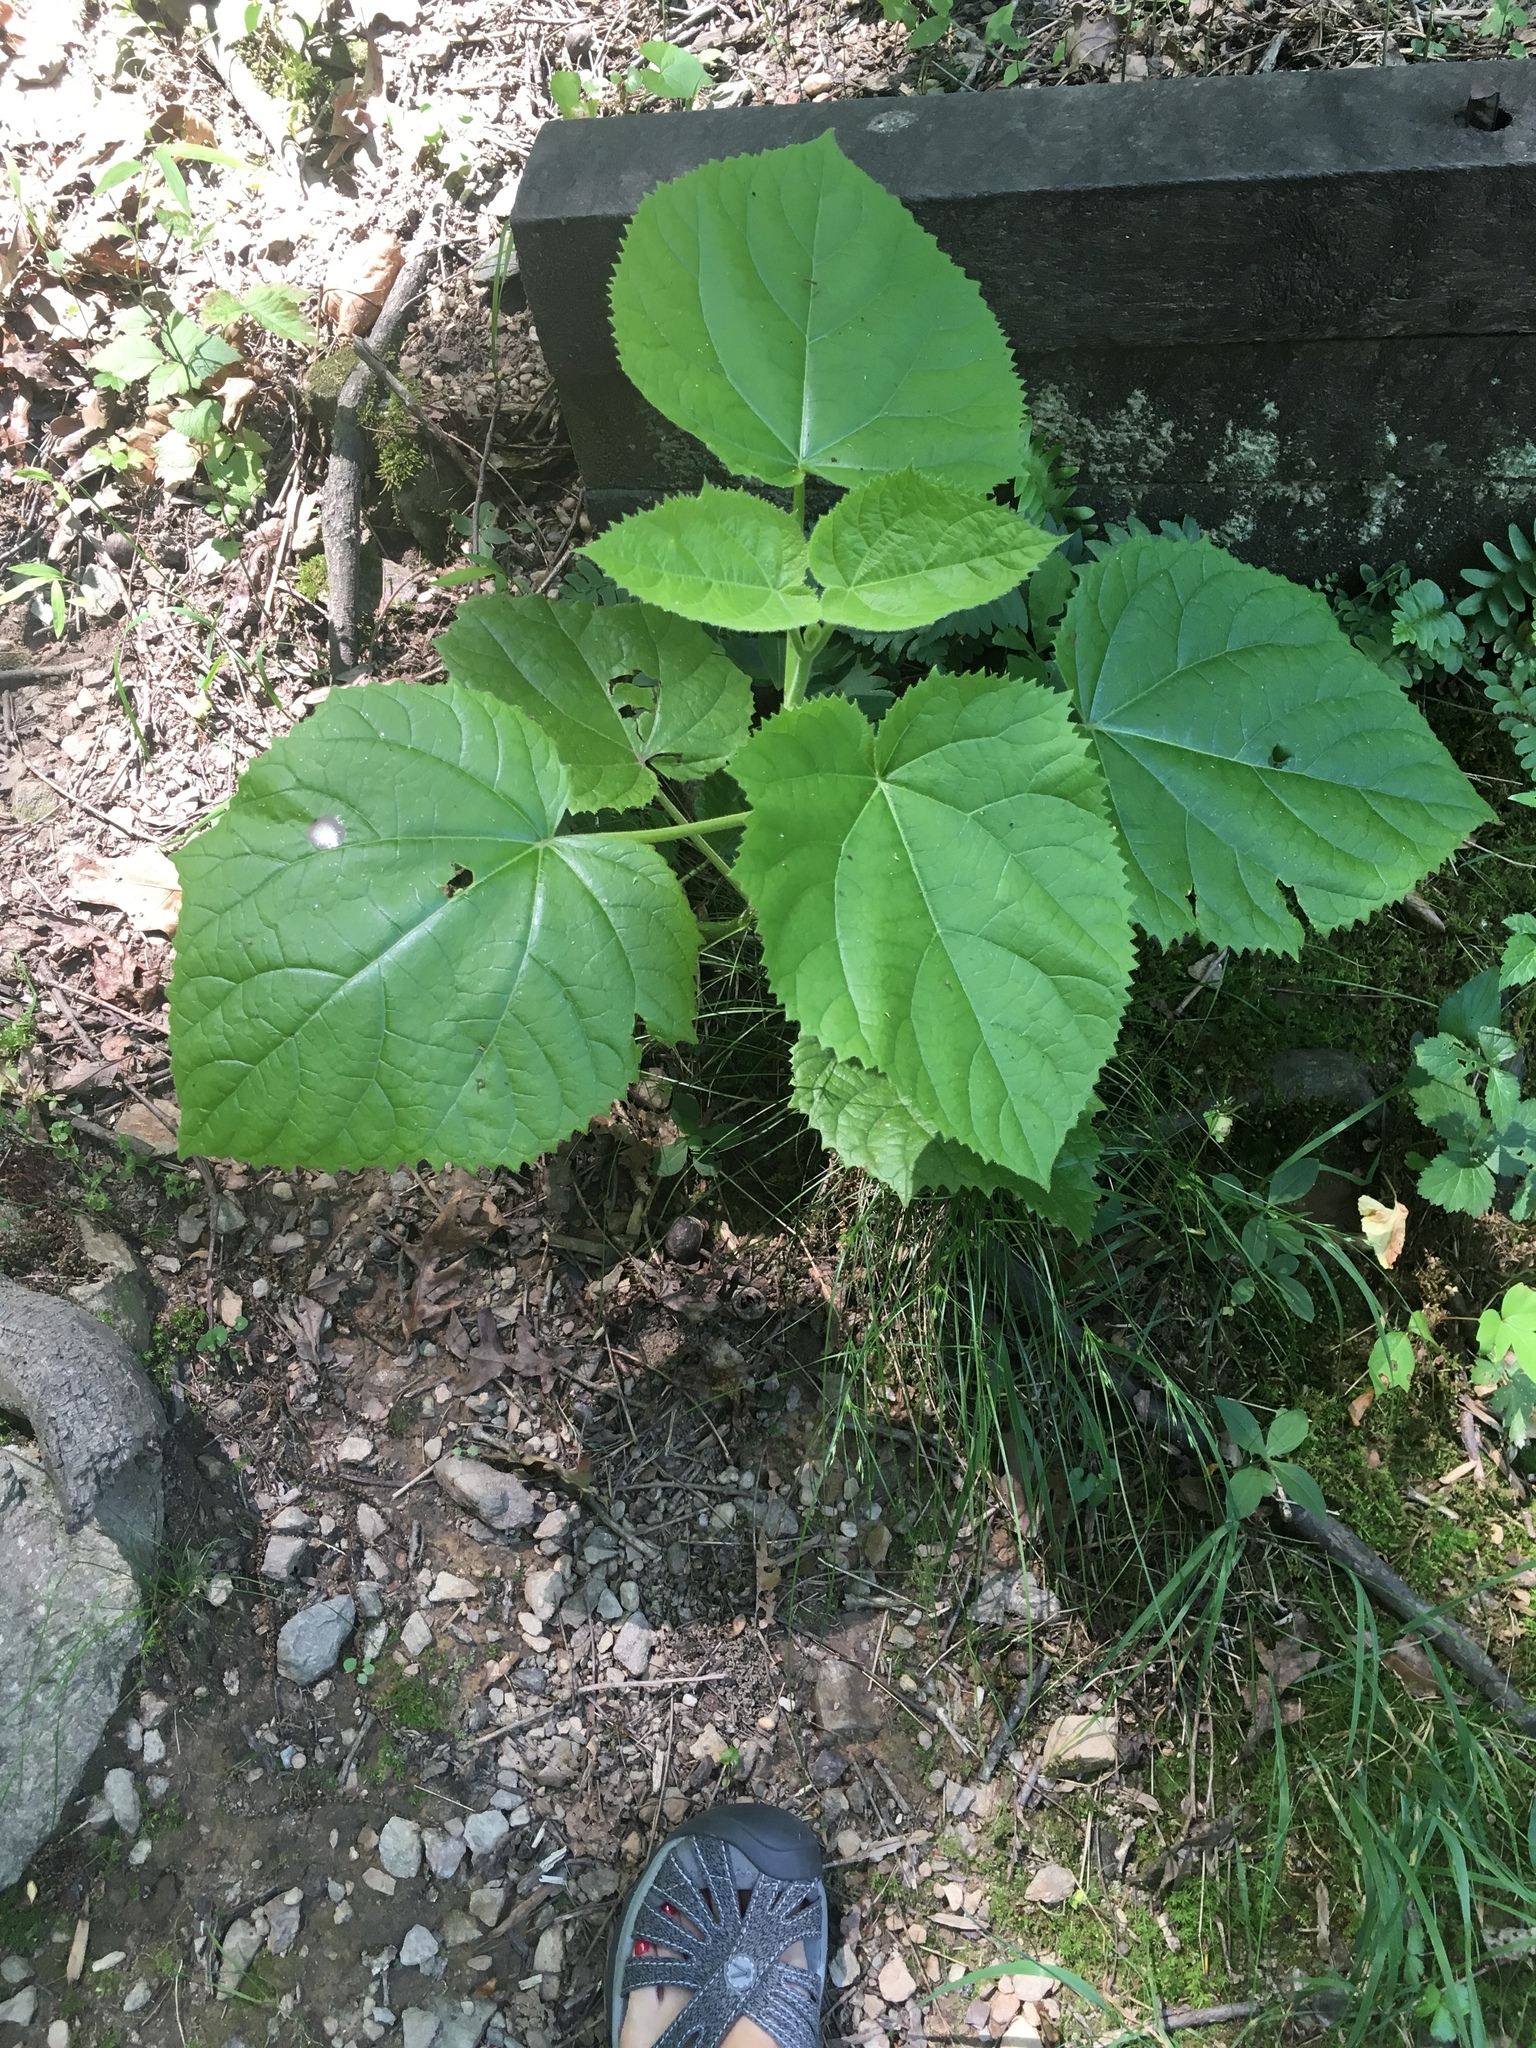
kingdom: Plantae
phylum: Tracheophyta
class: Magnoliopsida
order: Lamiales
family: Paulowniaceae
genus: Paulownia
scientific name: Paulownia tomentosa
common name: Foxglove-tree
